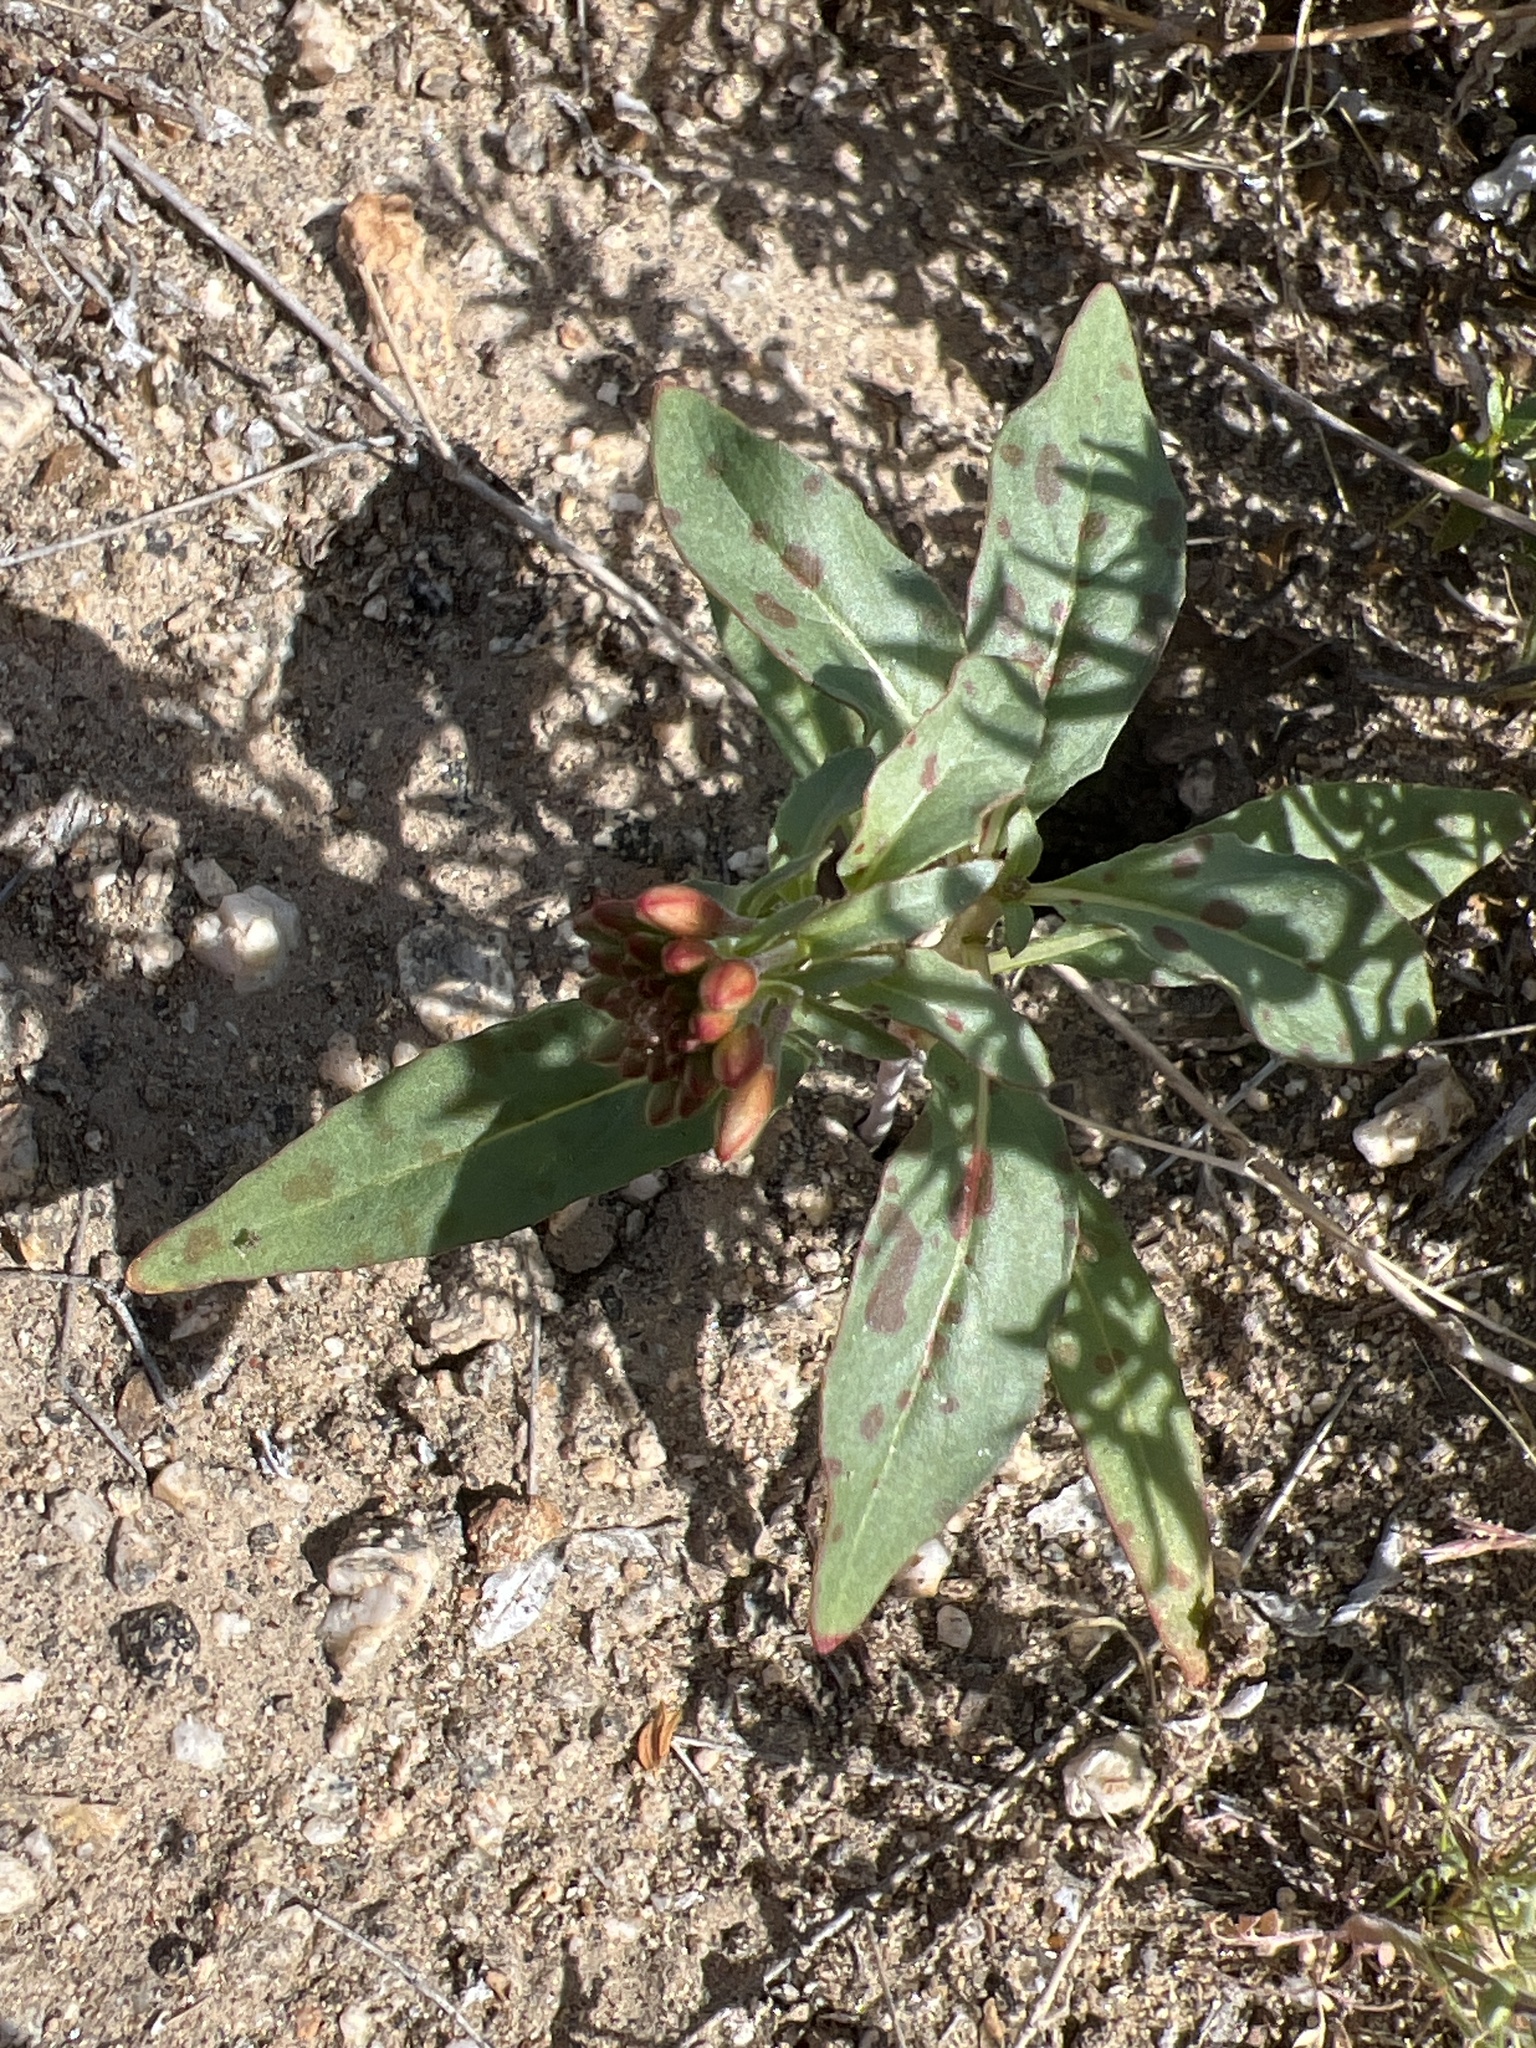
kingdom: Plantae
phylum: Tracheophyta
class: Magnoliopsida
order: Myrtales
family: Onagraceae
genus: Eremothera
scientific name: Eremothera boothii
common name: Booth's evening primrose
